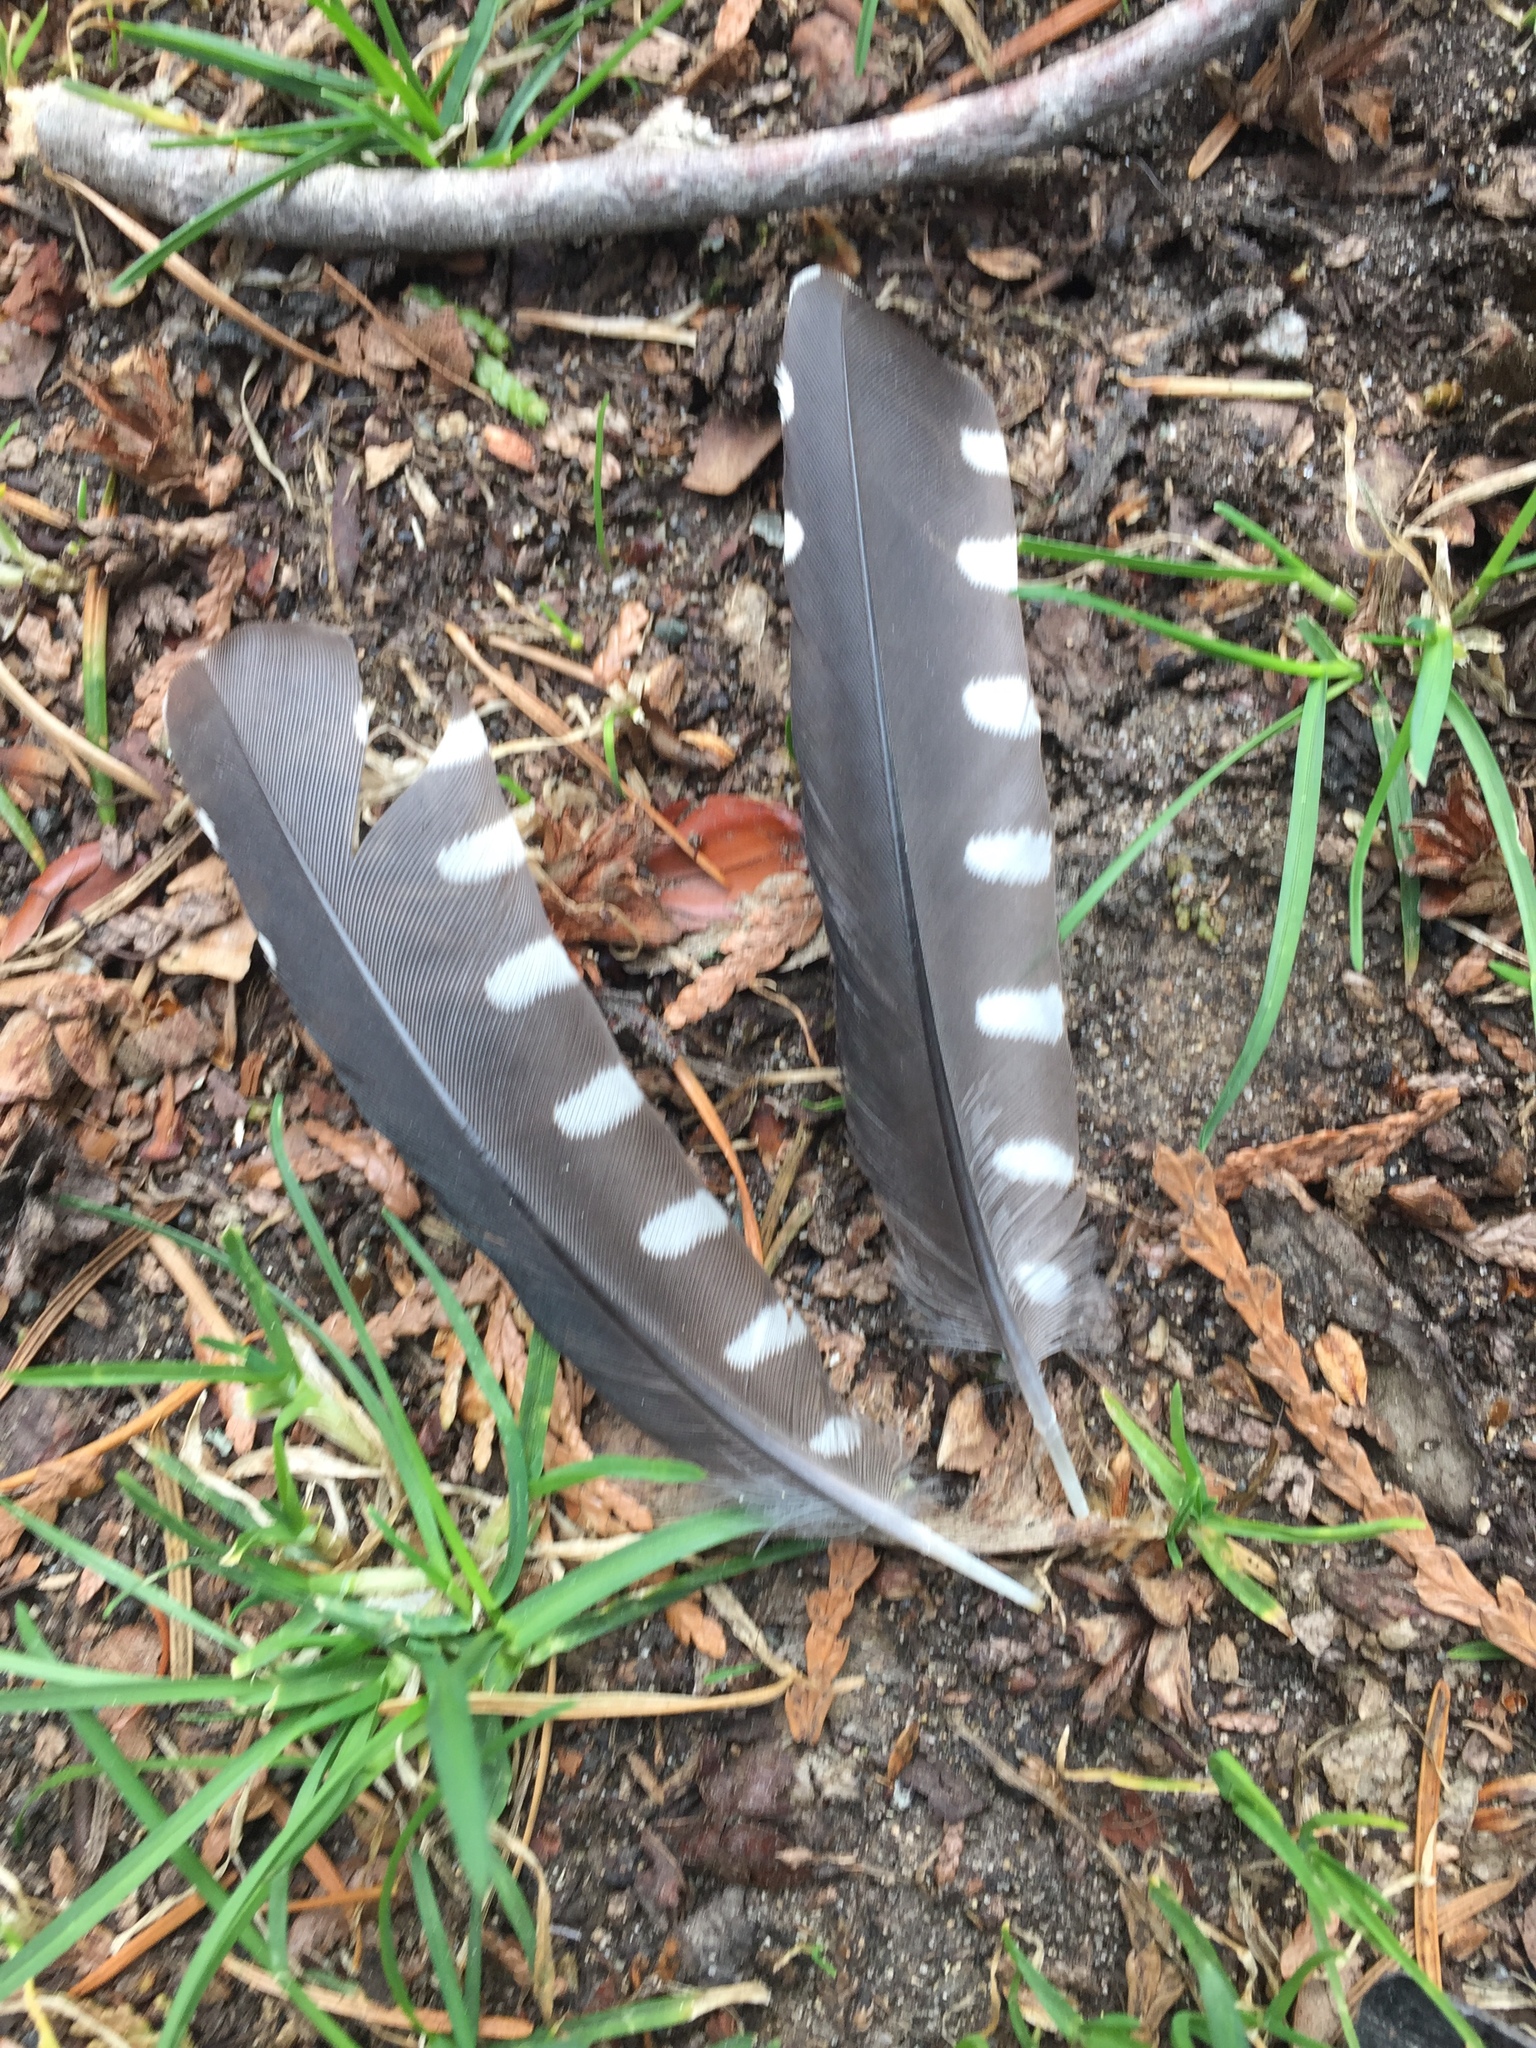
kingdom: Animalia
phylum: Chordata
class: Aves
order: Piciformes
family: Picidae
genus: Sphyrapicus
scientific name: Sphyrapicus ruber
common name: Red-breasted sapsucker
